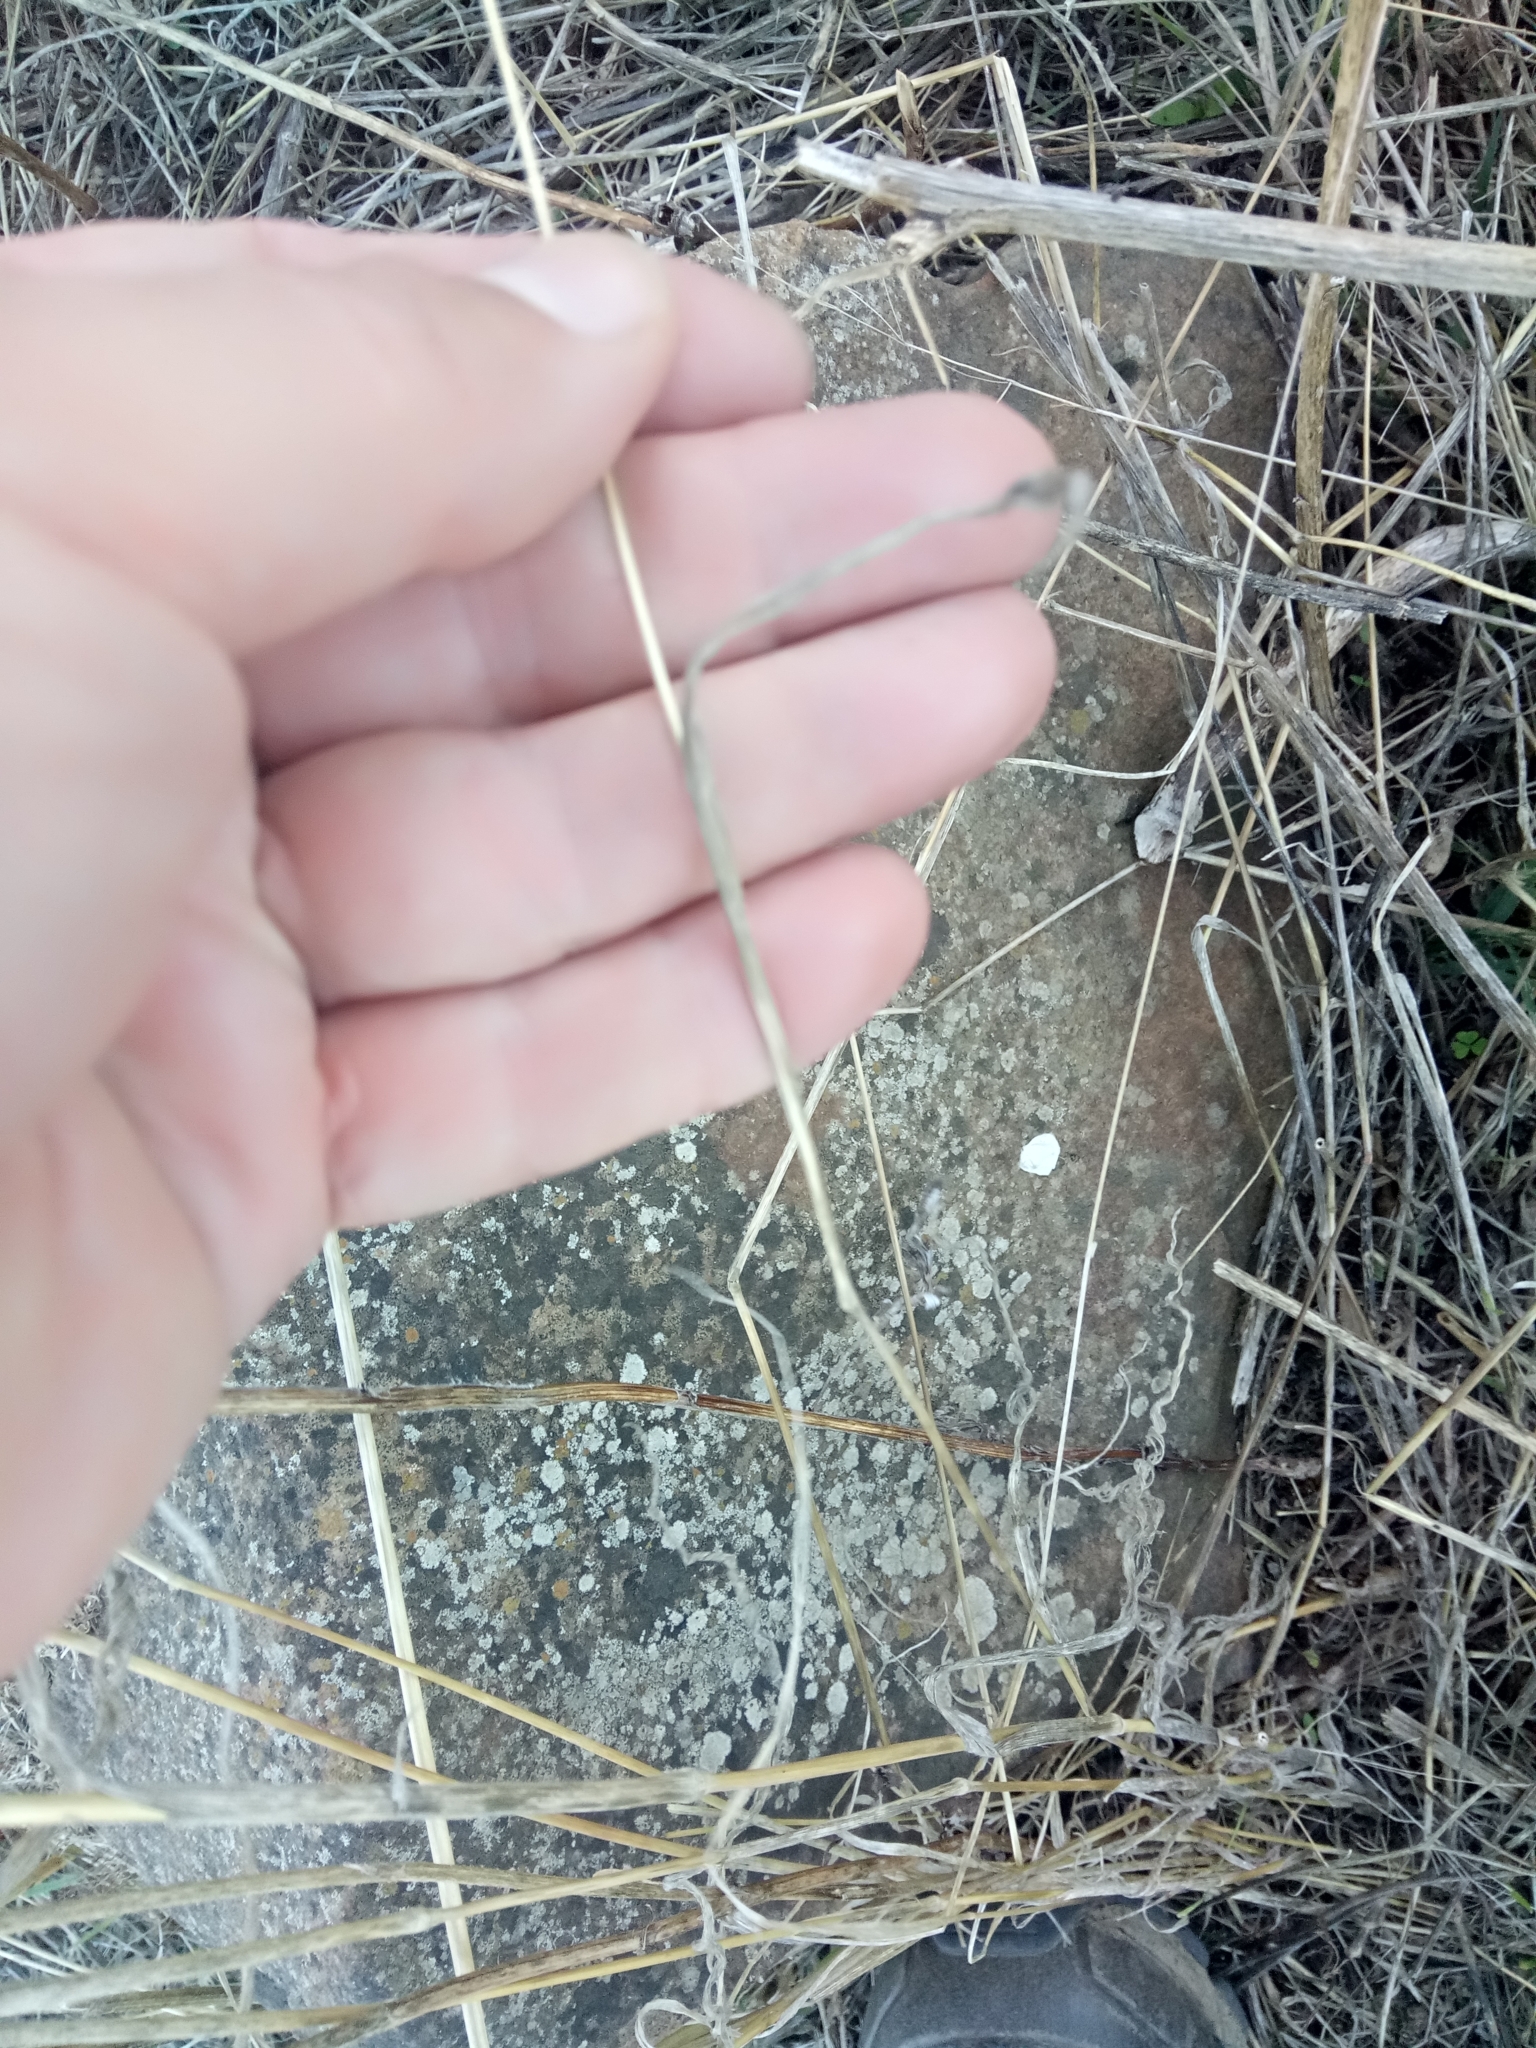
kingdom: Plantae
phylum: Tracheophyta
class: Liliopsida
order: Poales
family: Poaceae
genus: Lagurus
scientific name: Lagurus ovatus
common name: Hare's-tail
